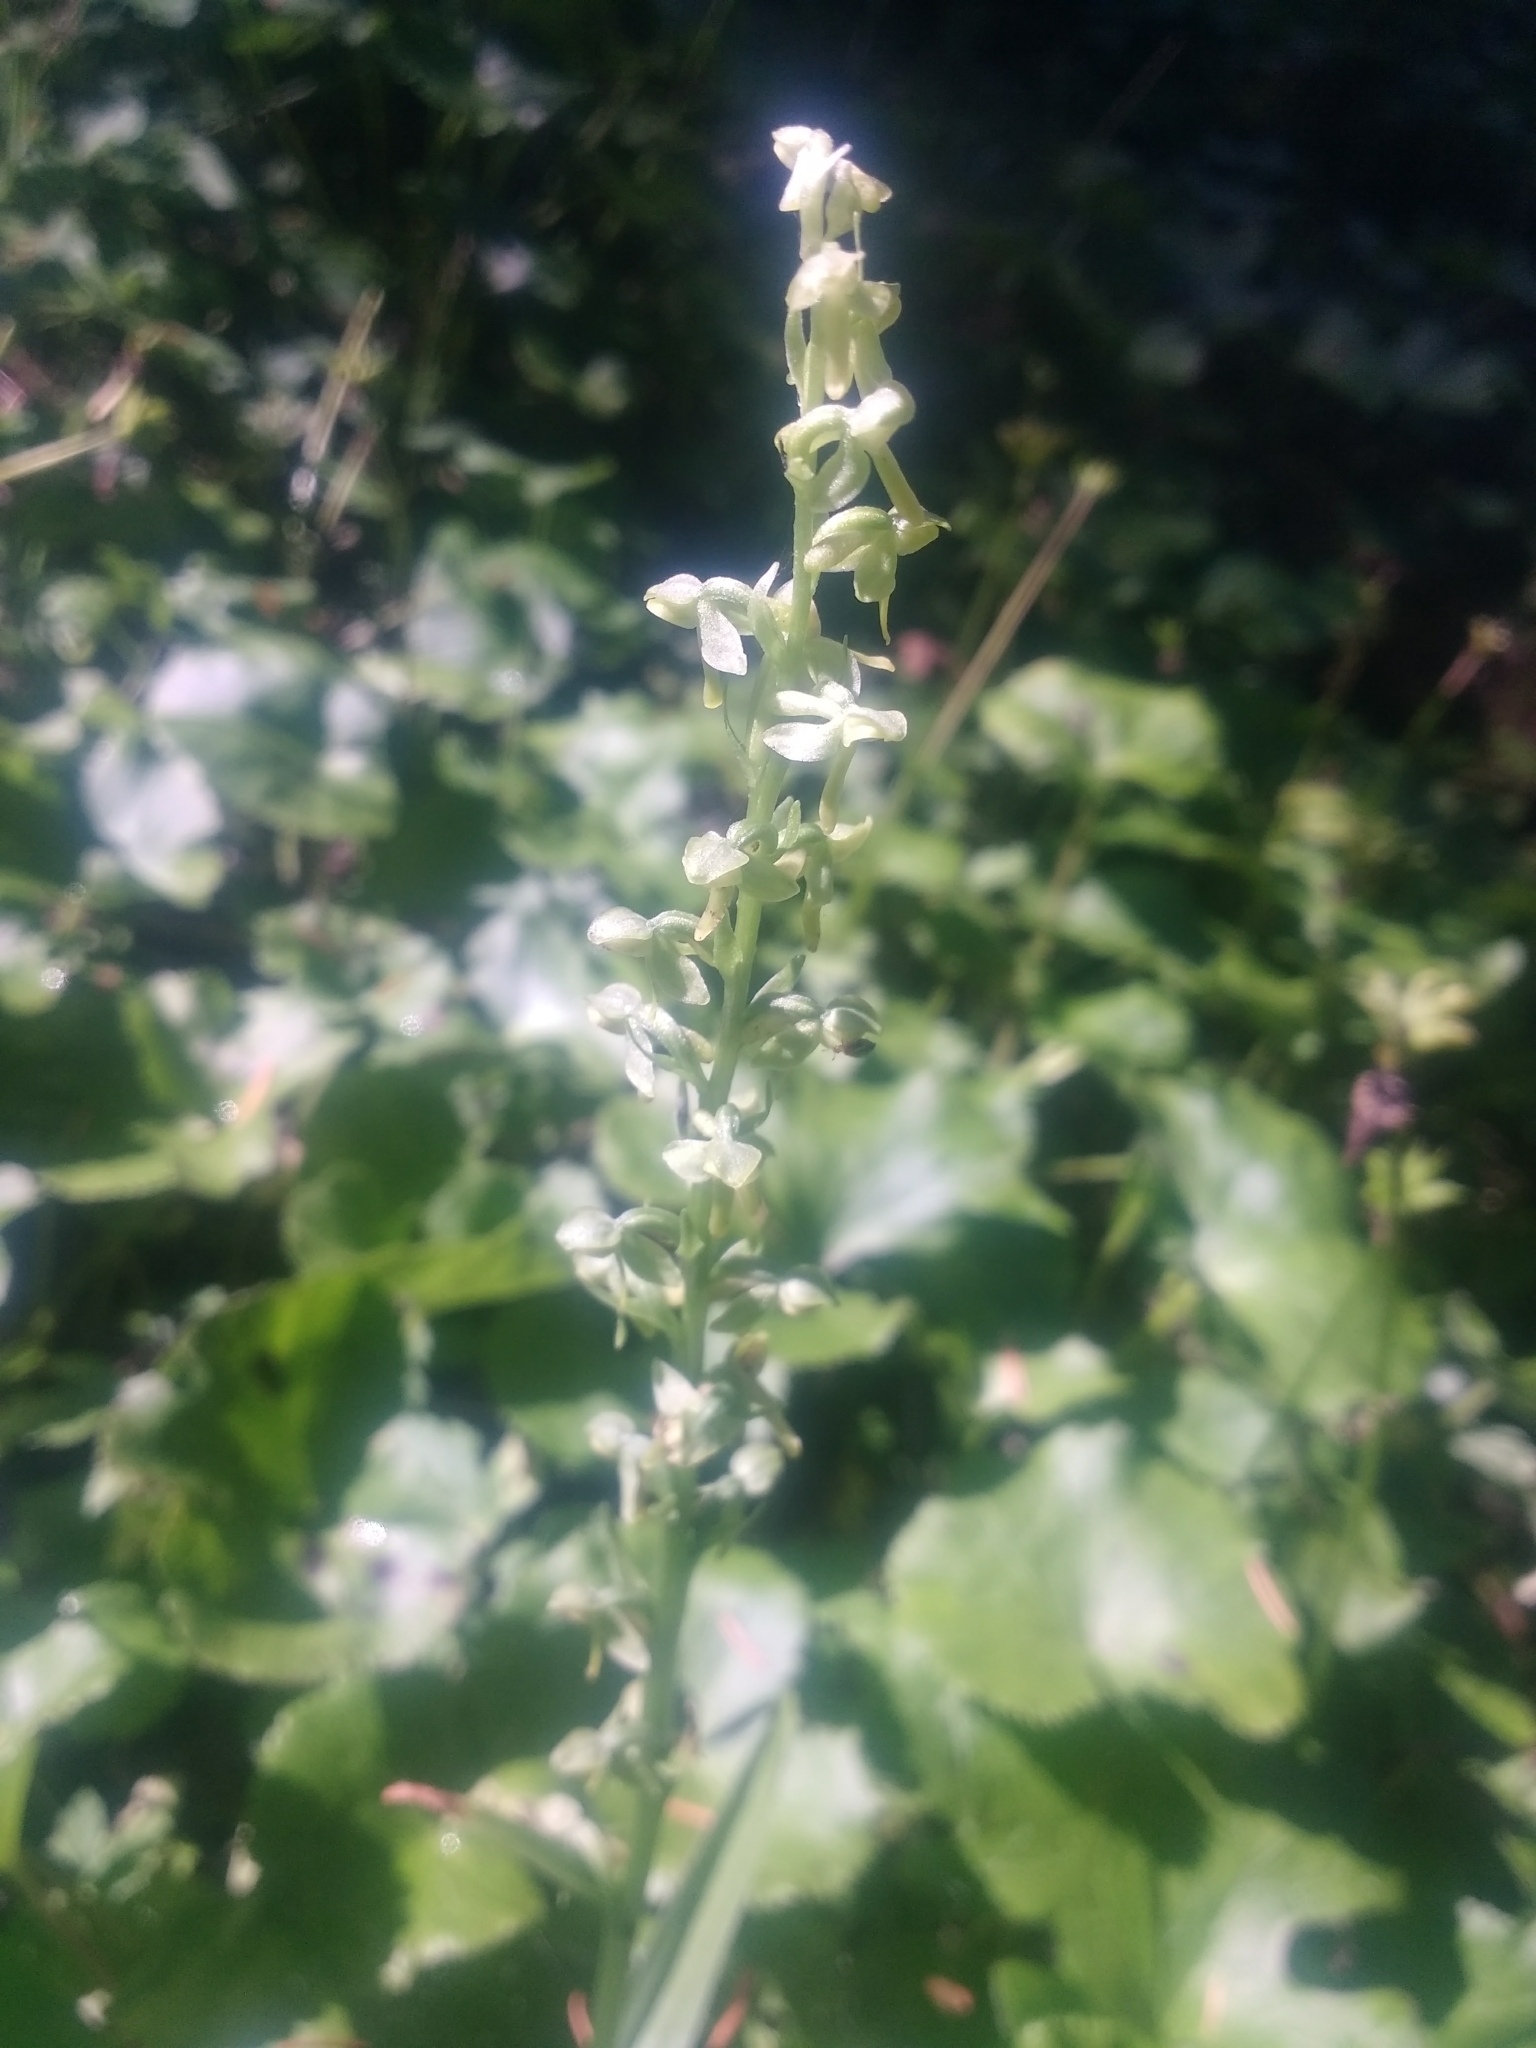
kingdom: Plantae
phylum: Tracheophyta
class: Liliopsida
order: Asparagales
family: Orchidaceae
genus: Platanthera
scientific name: Platanthera stricta
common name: Slender bog orchid
